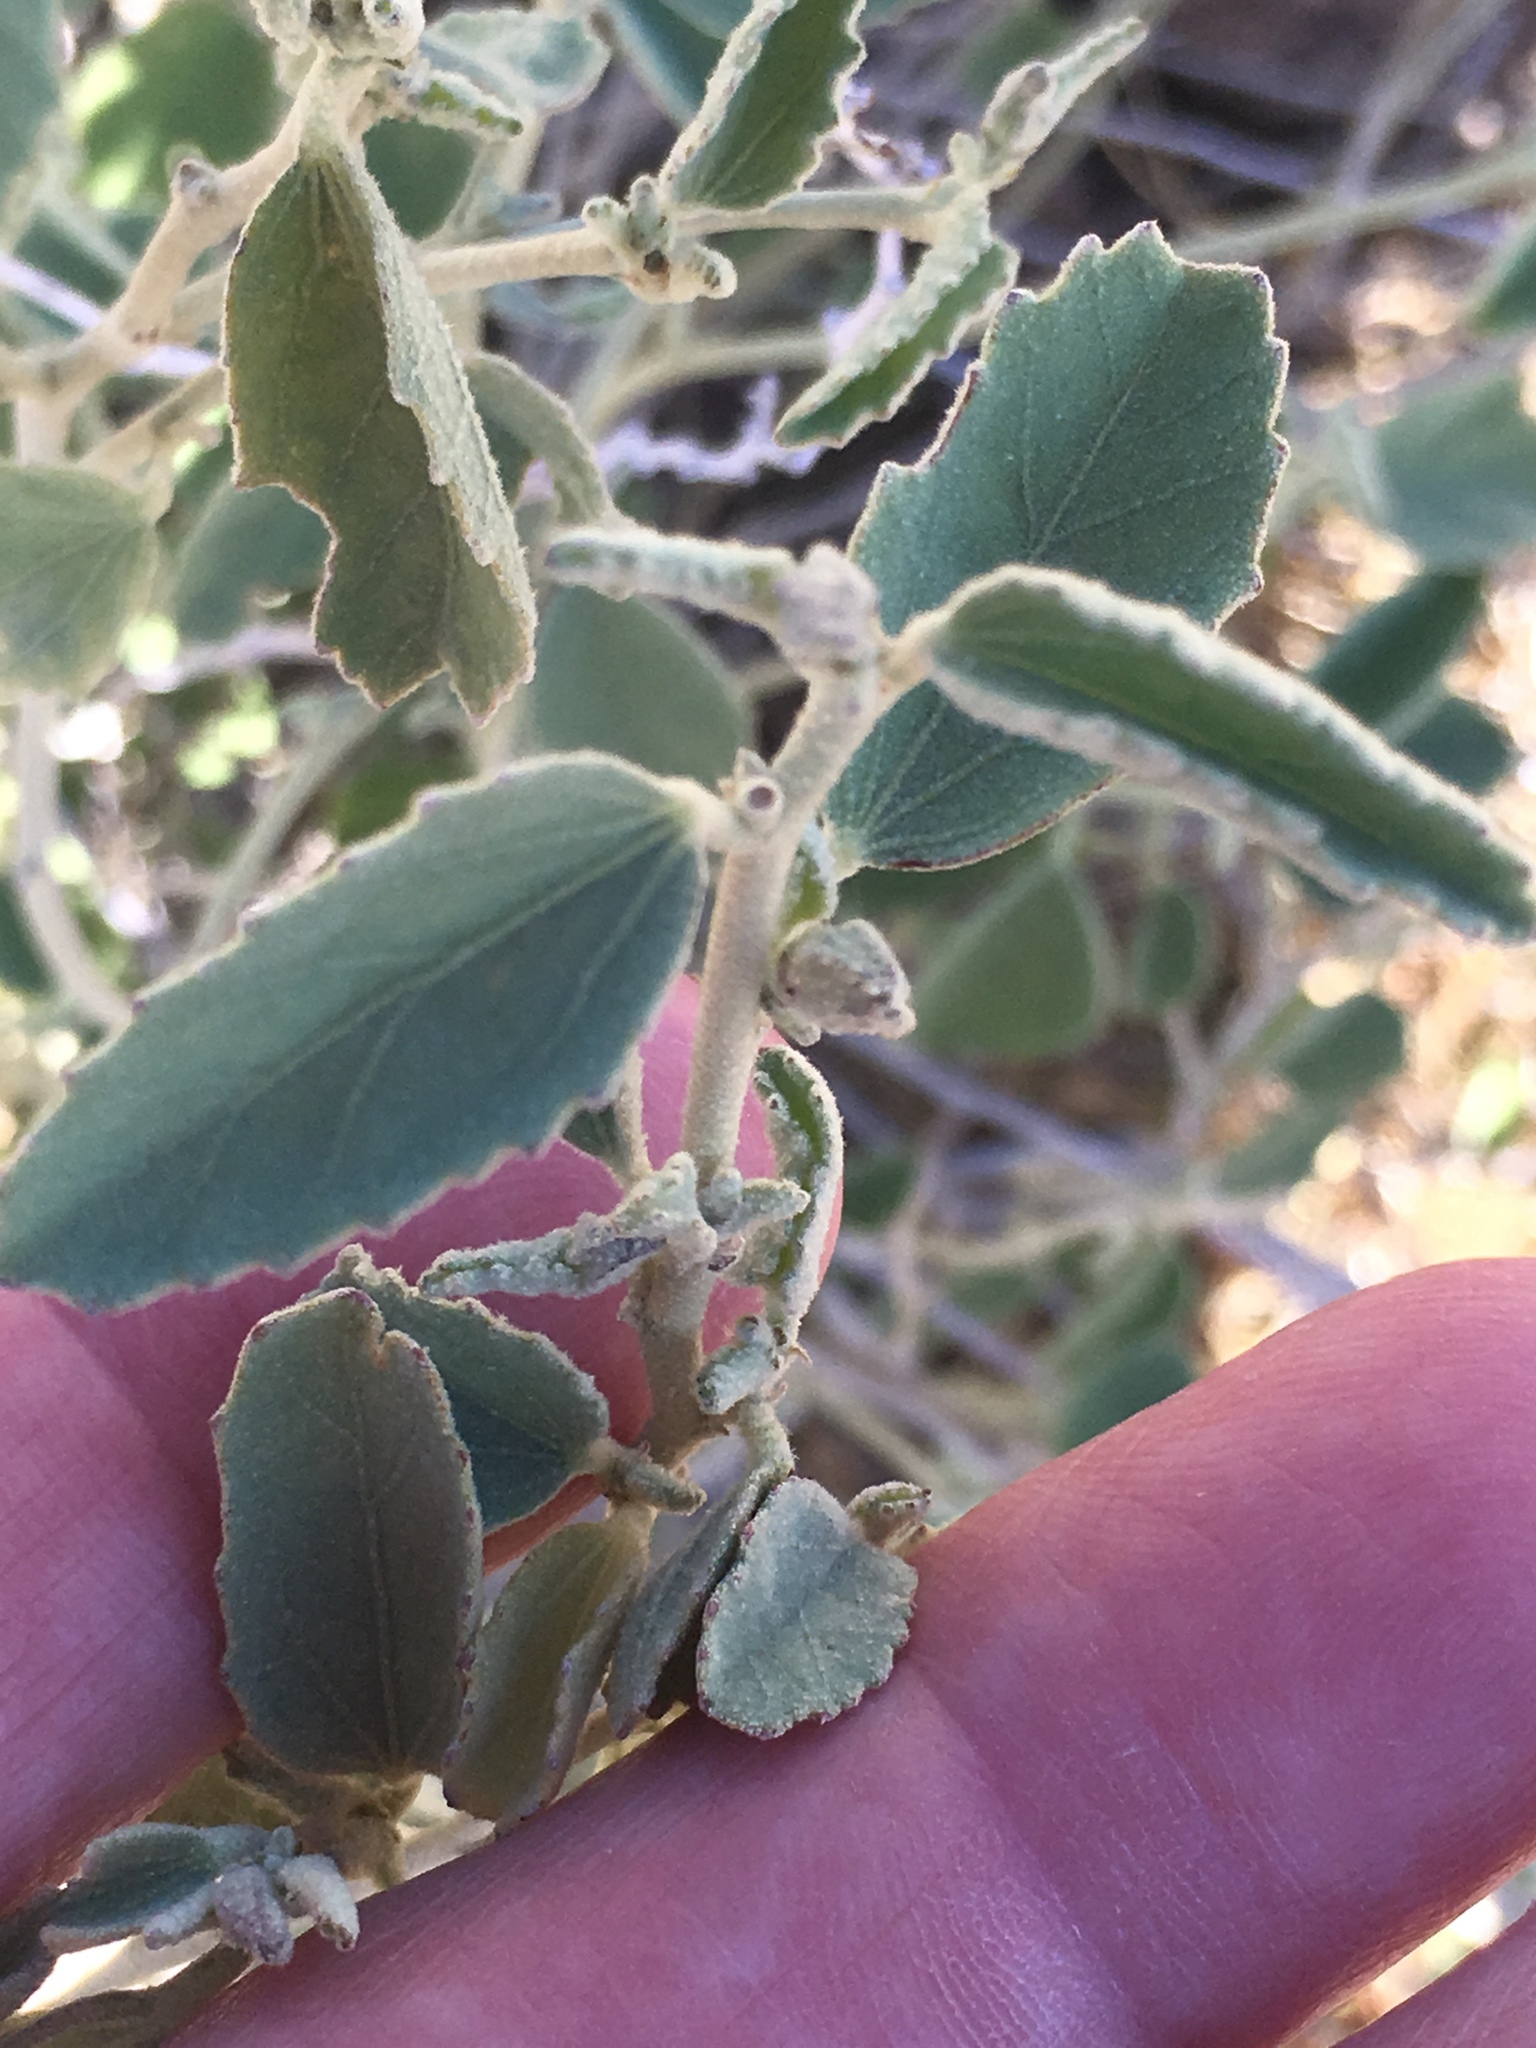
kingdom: Plantae
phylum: Tracheophyta
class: Magnoliopsida
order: Malvales
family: Malvaceae
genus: Hibiscus
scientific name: Hibiscus denudatus
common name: Paleface
